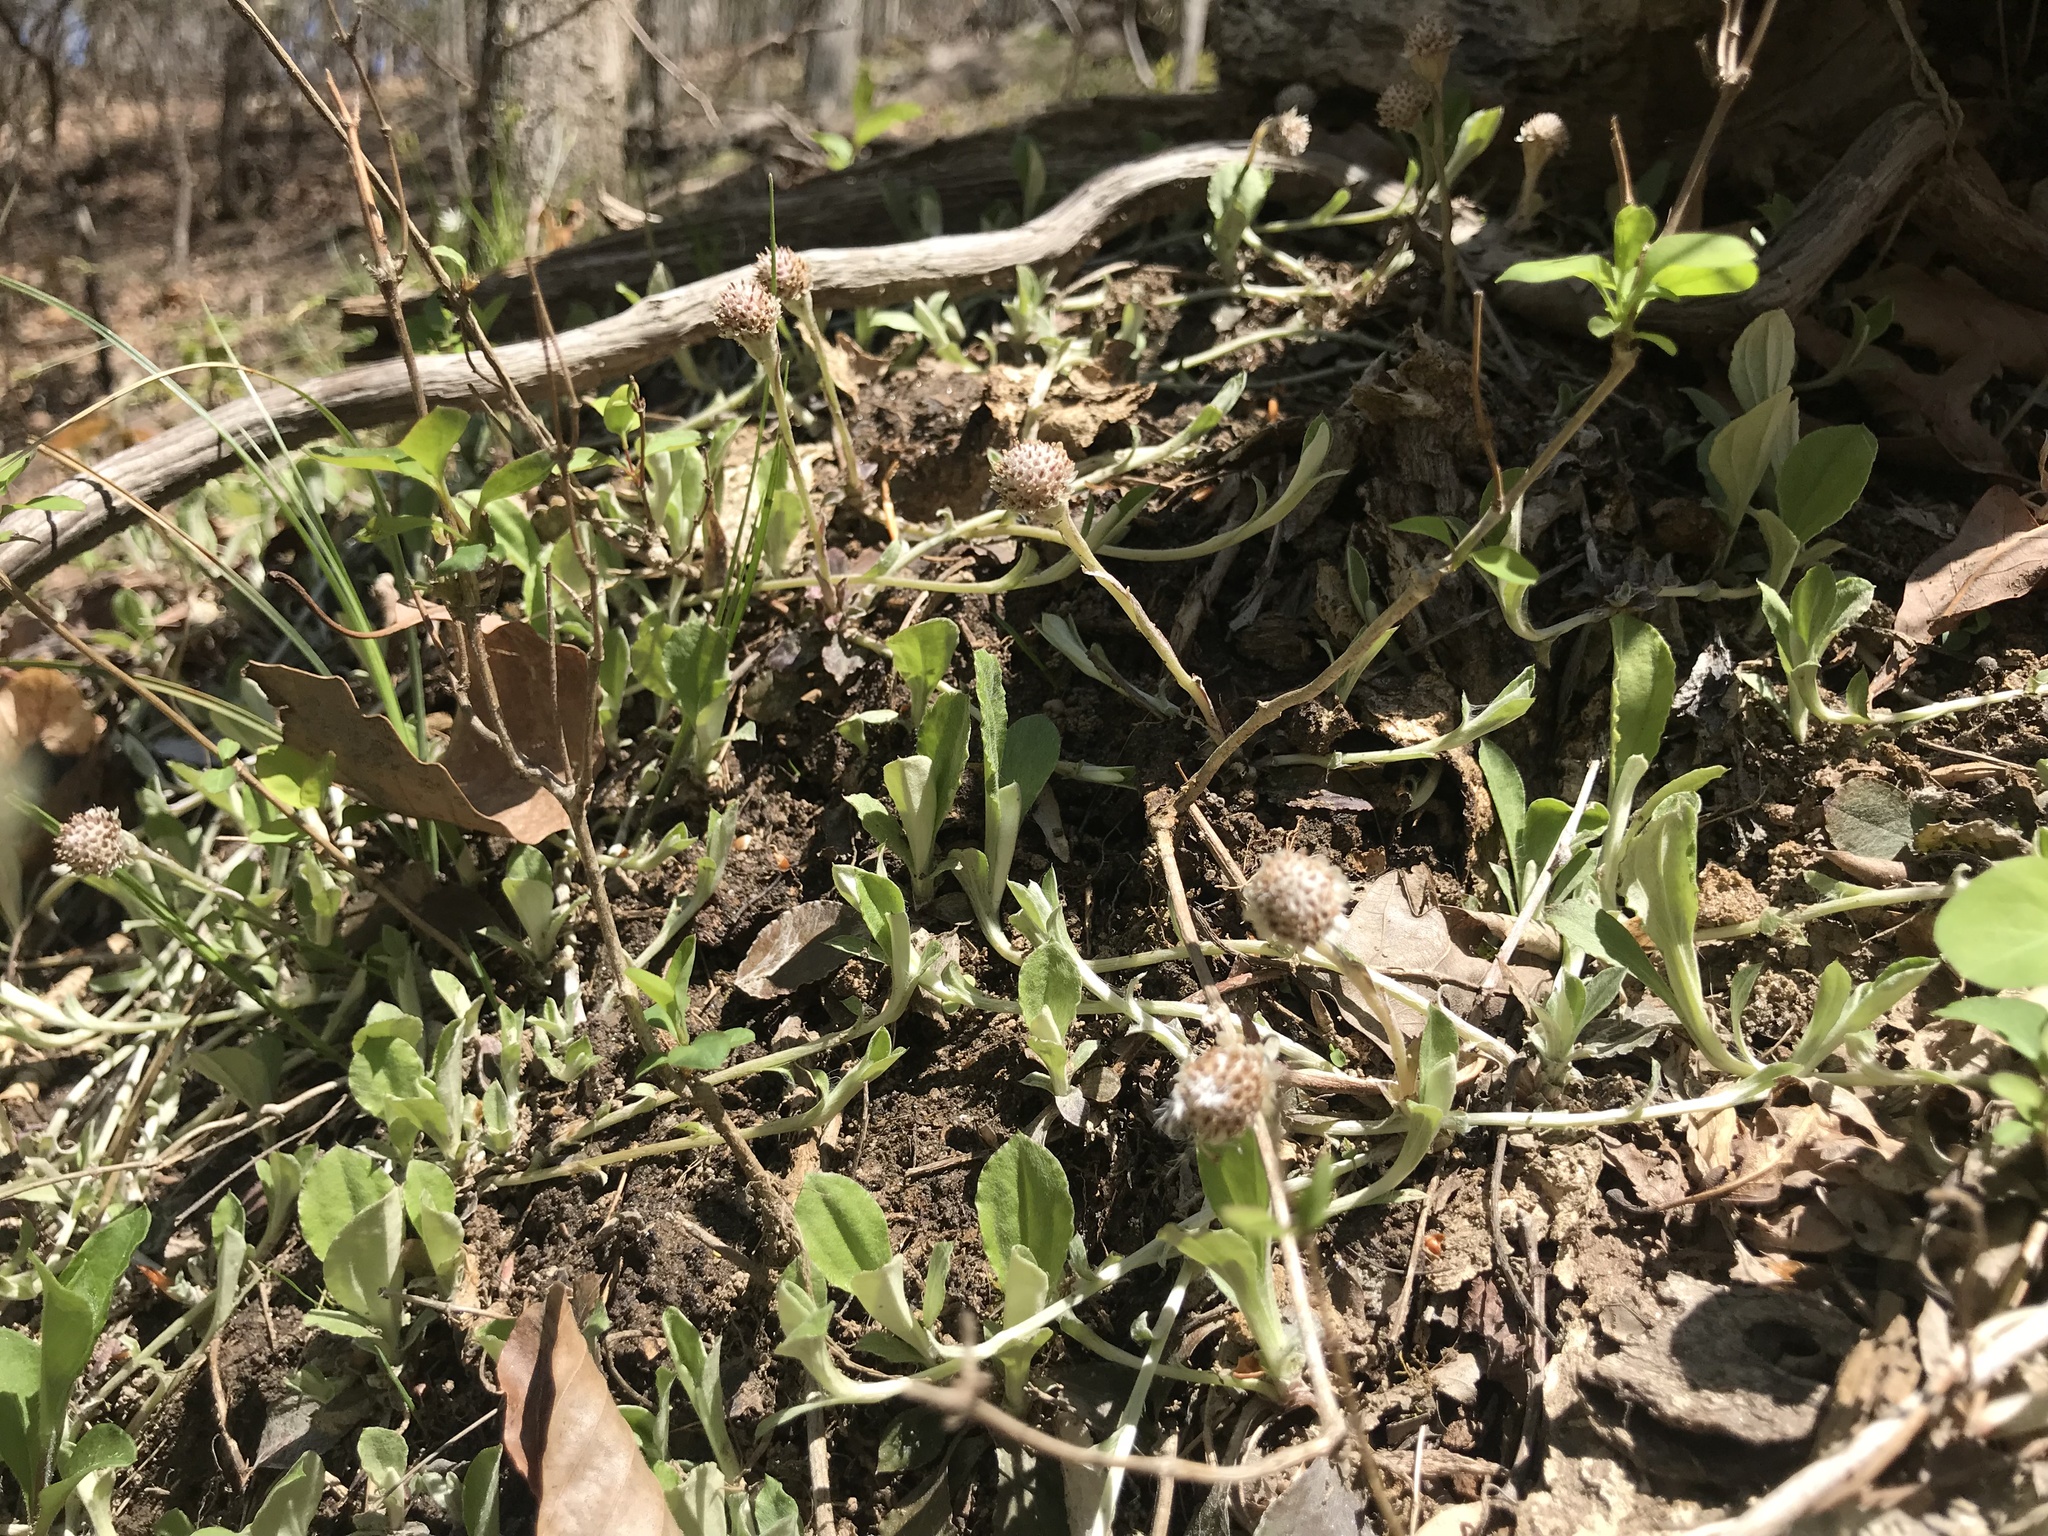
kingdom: Plantae
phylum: Tracheophyta
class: Magnoliopsida
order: Asterales
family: Asteraceae
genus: Antennaria
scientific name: Antennaria solitaria
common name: Single-head pussytoes
